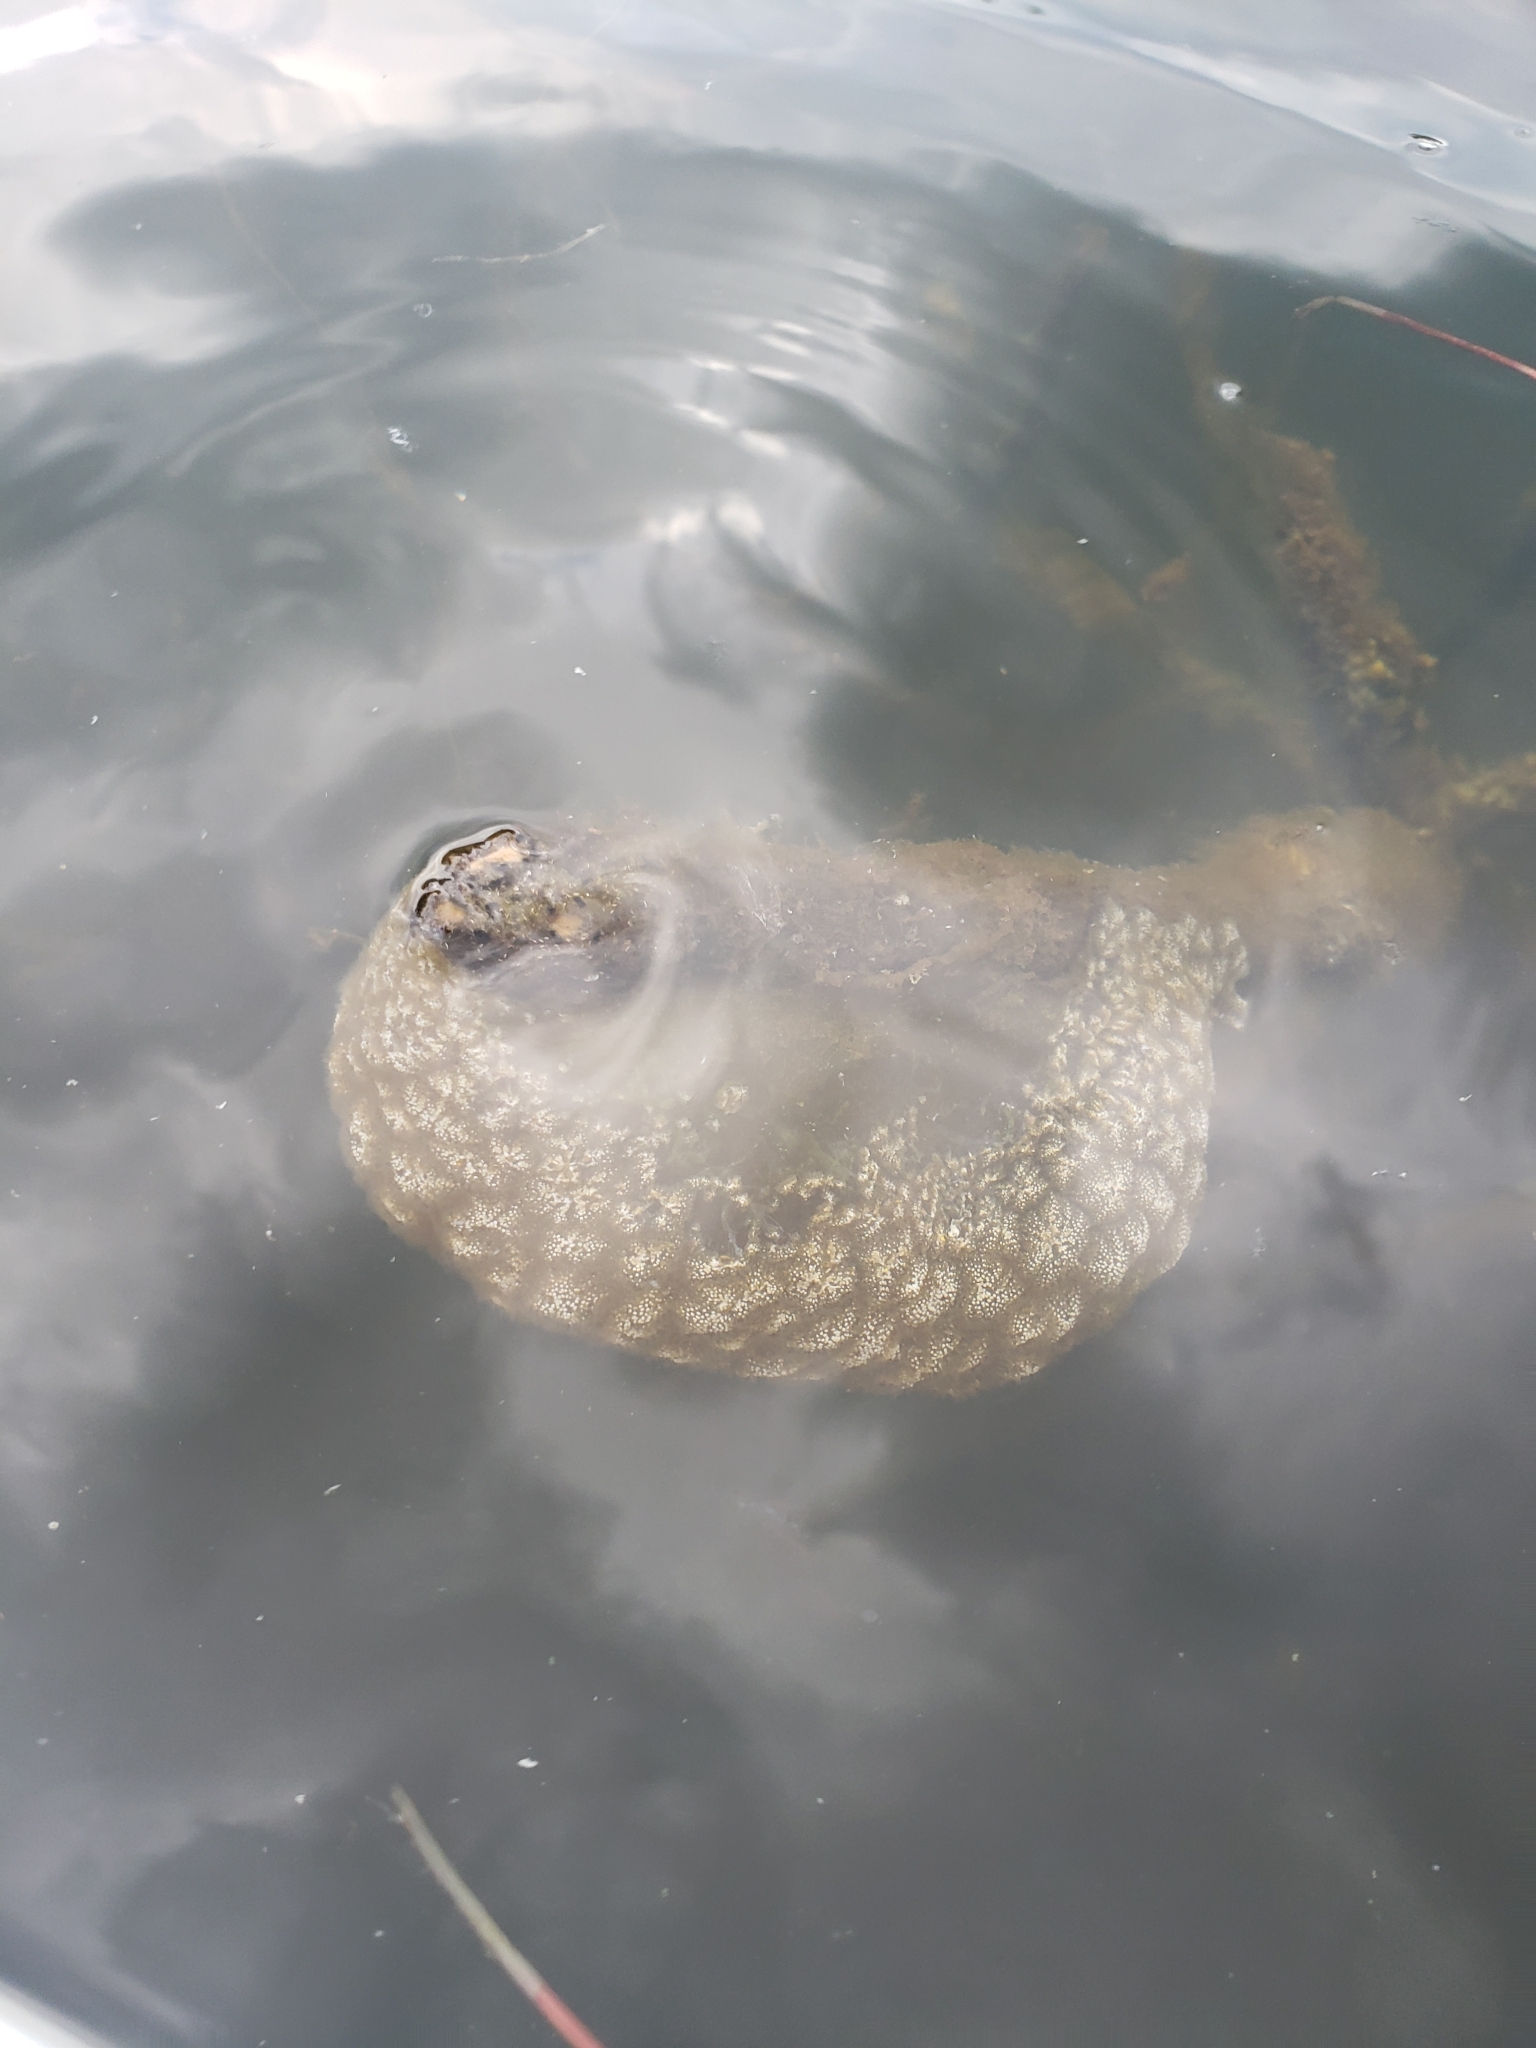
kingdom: Animalia
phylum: Bryozoa
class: Phylactolaemata
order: Plumatellida
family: Pectinatellidae
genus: Pectinatella
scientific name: Pectinatella magnifica
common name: Magnificent bryozoan
